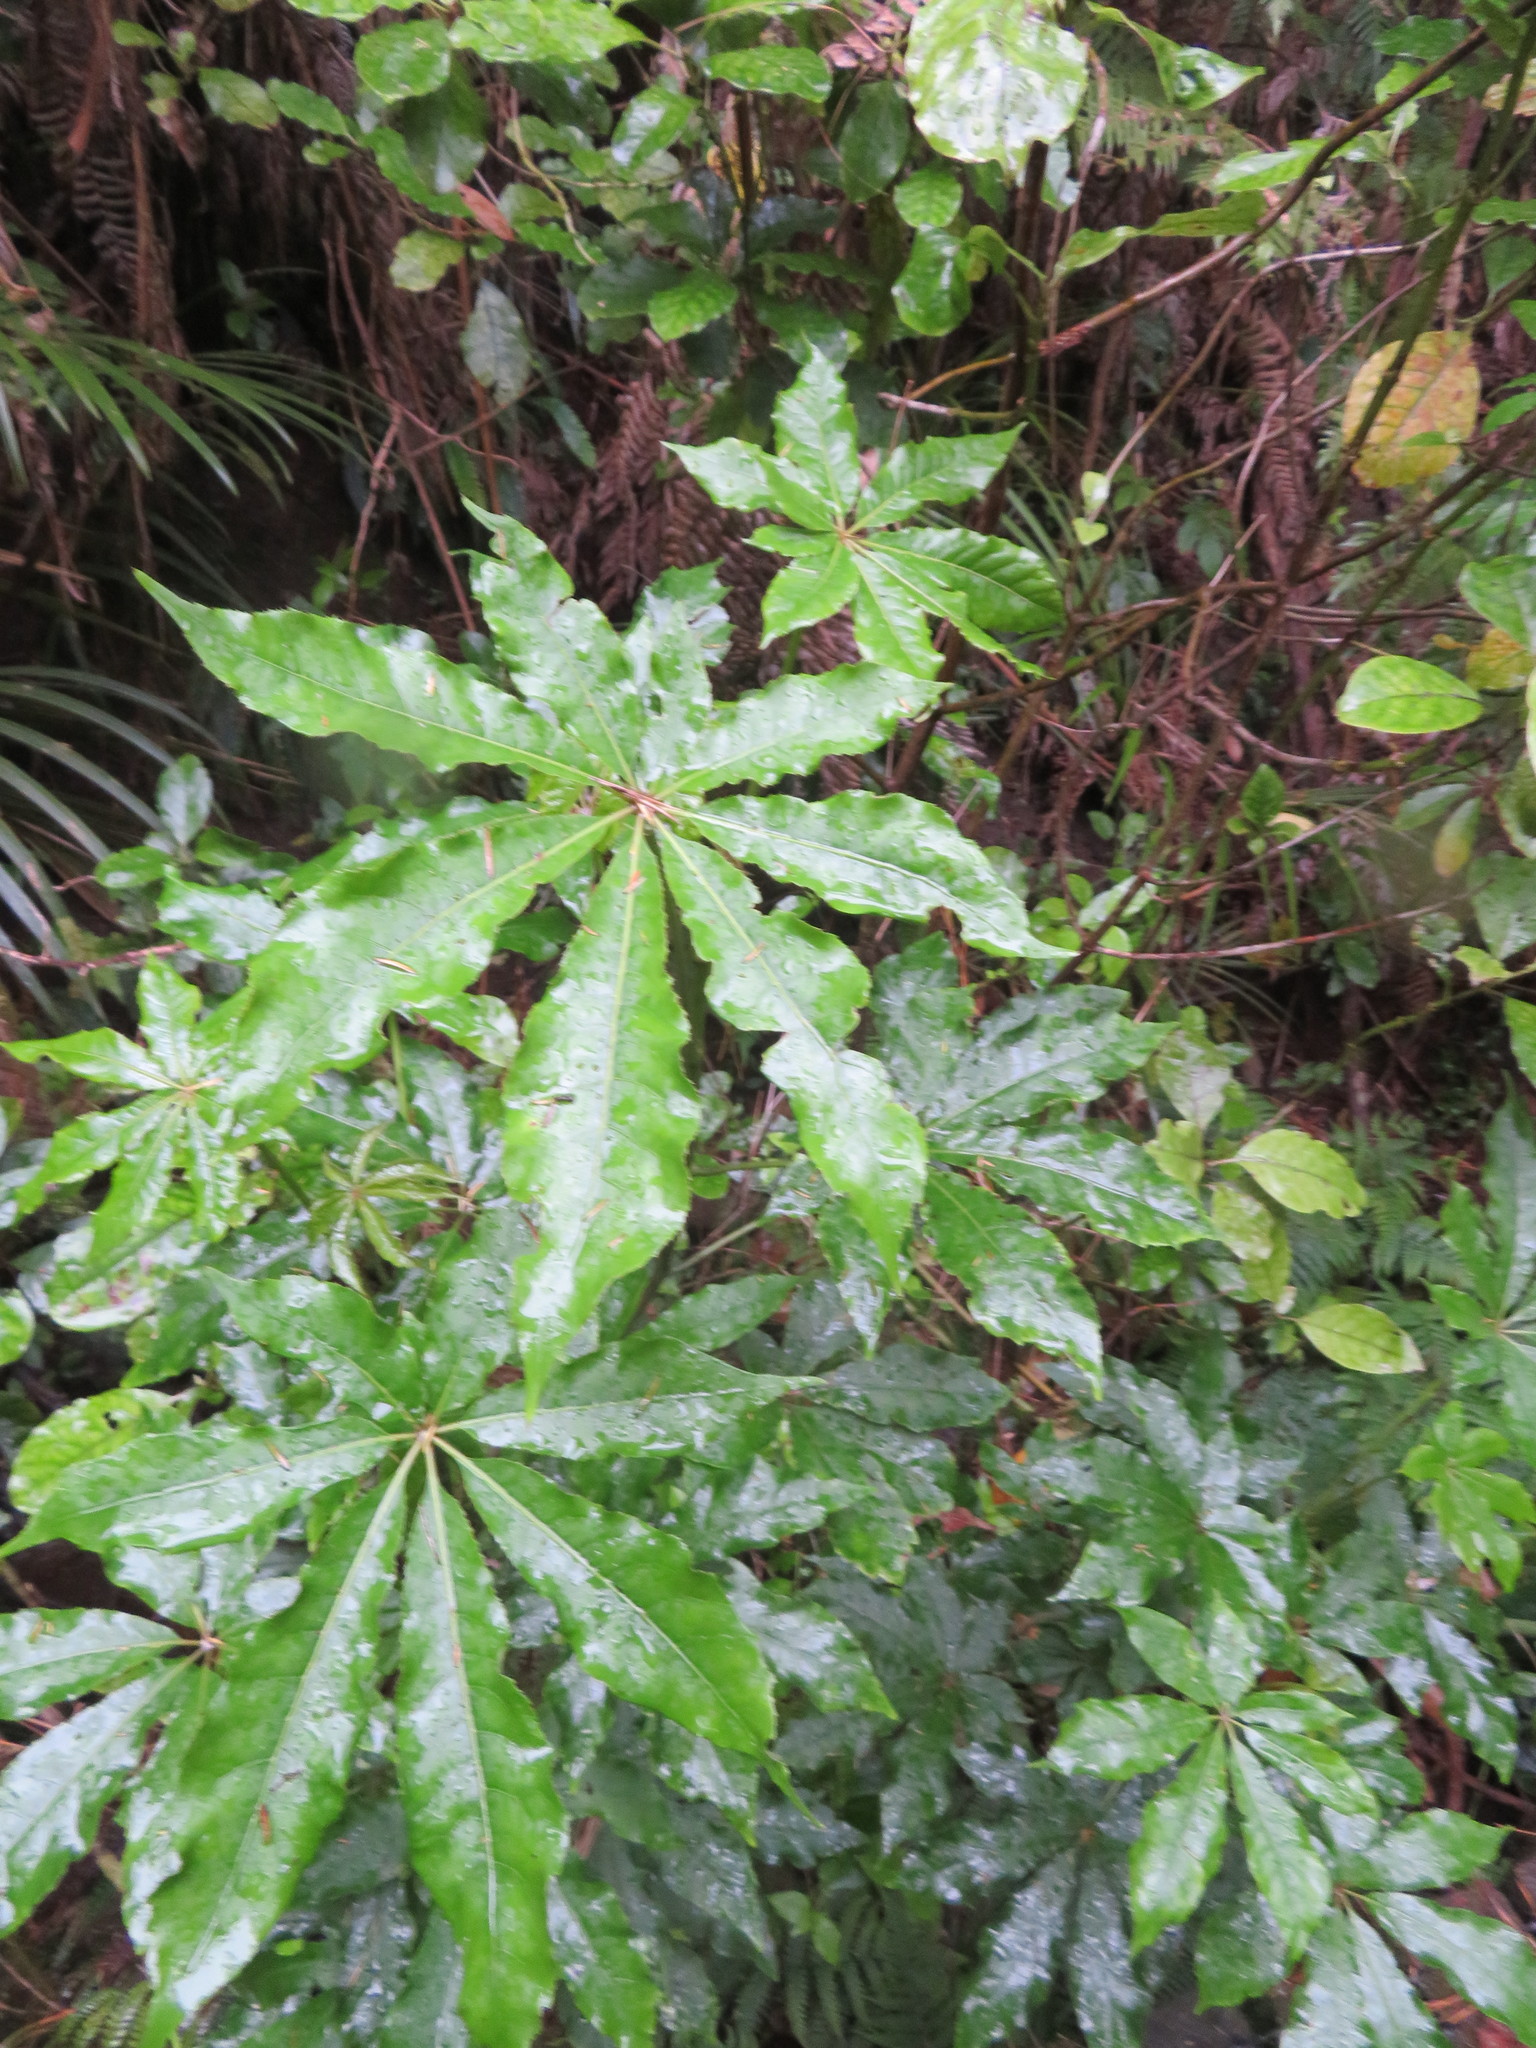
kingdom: Plantae
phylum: Tracheophyta
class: Magnoliopsida
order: Apiales
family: Araliaceae
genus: Schefflera
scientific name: Schefflera digitata
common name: Pate
